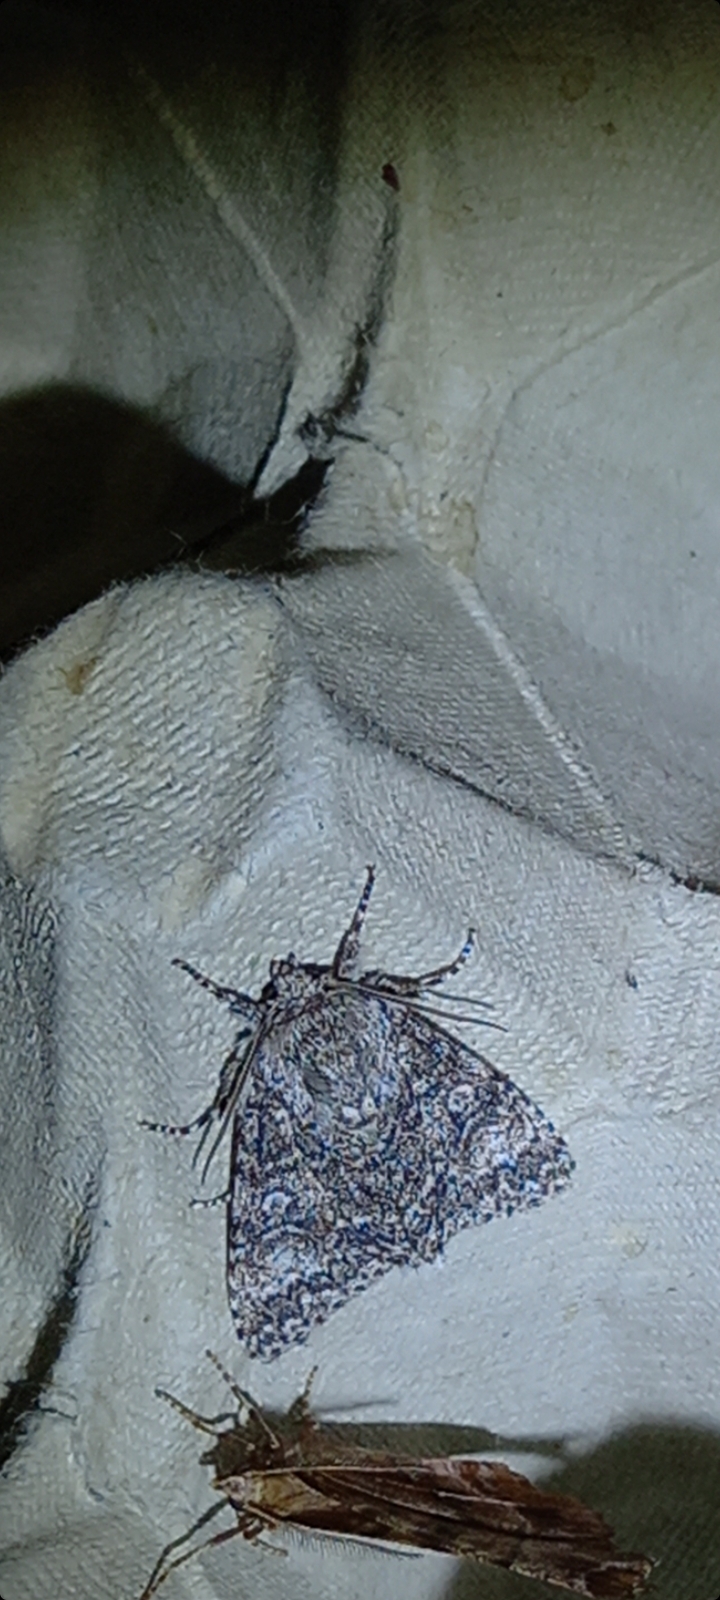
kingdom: Animalia
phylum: Arthropoda
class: Insecta
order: Lepidoptera
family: Noctuidae
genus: Acronicta
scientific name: Acronicta megacephala
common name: Poplar grey
